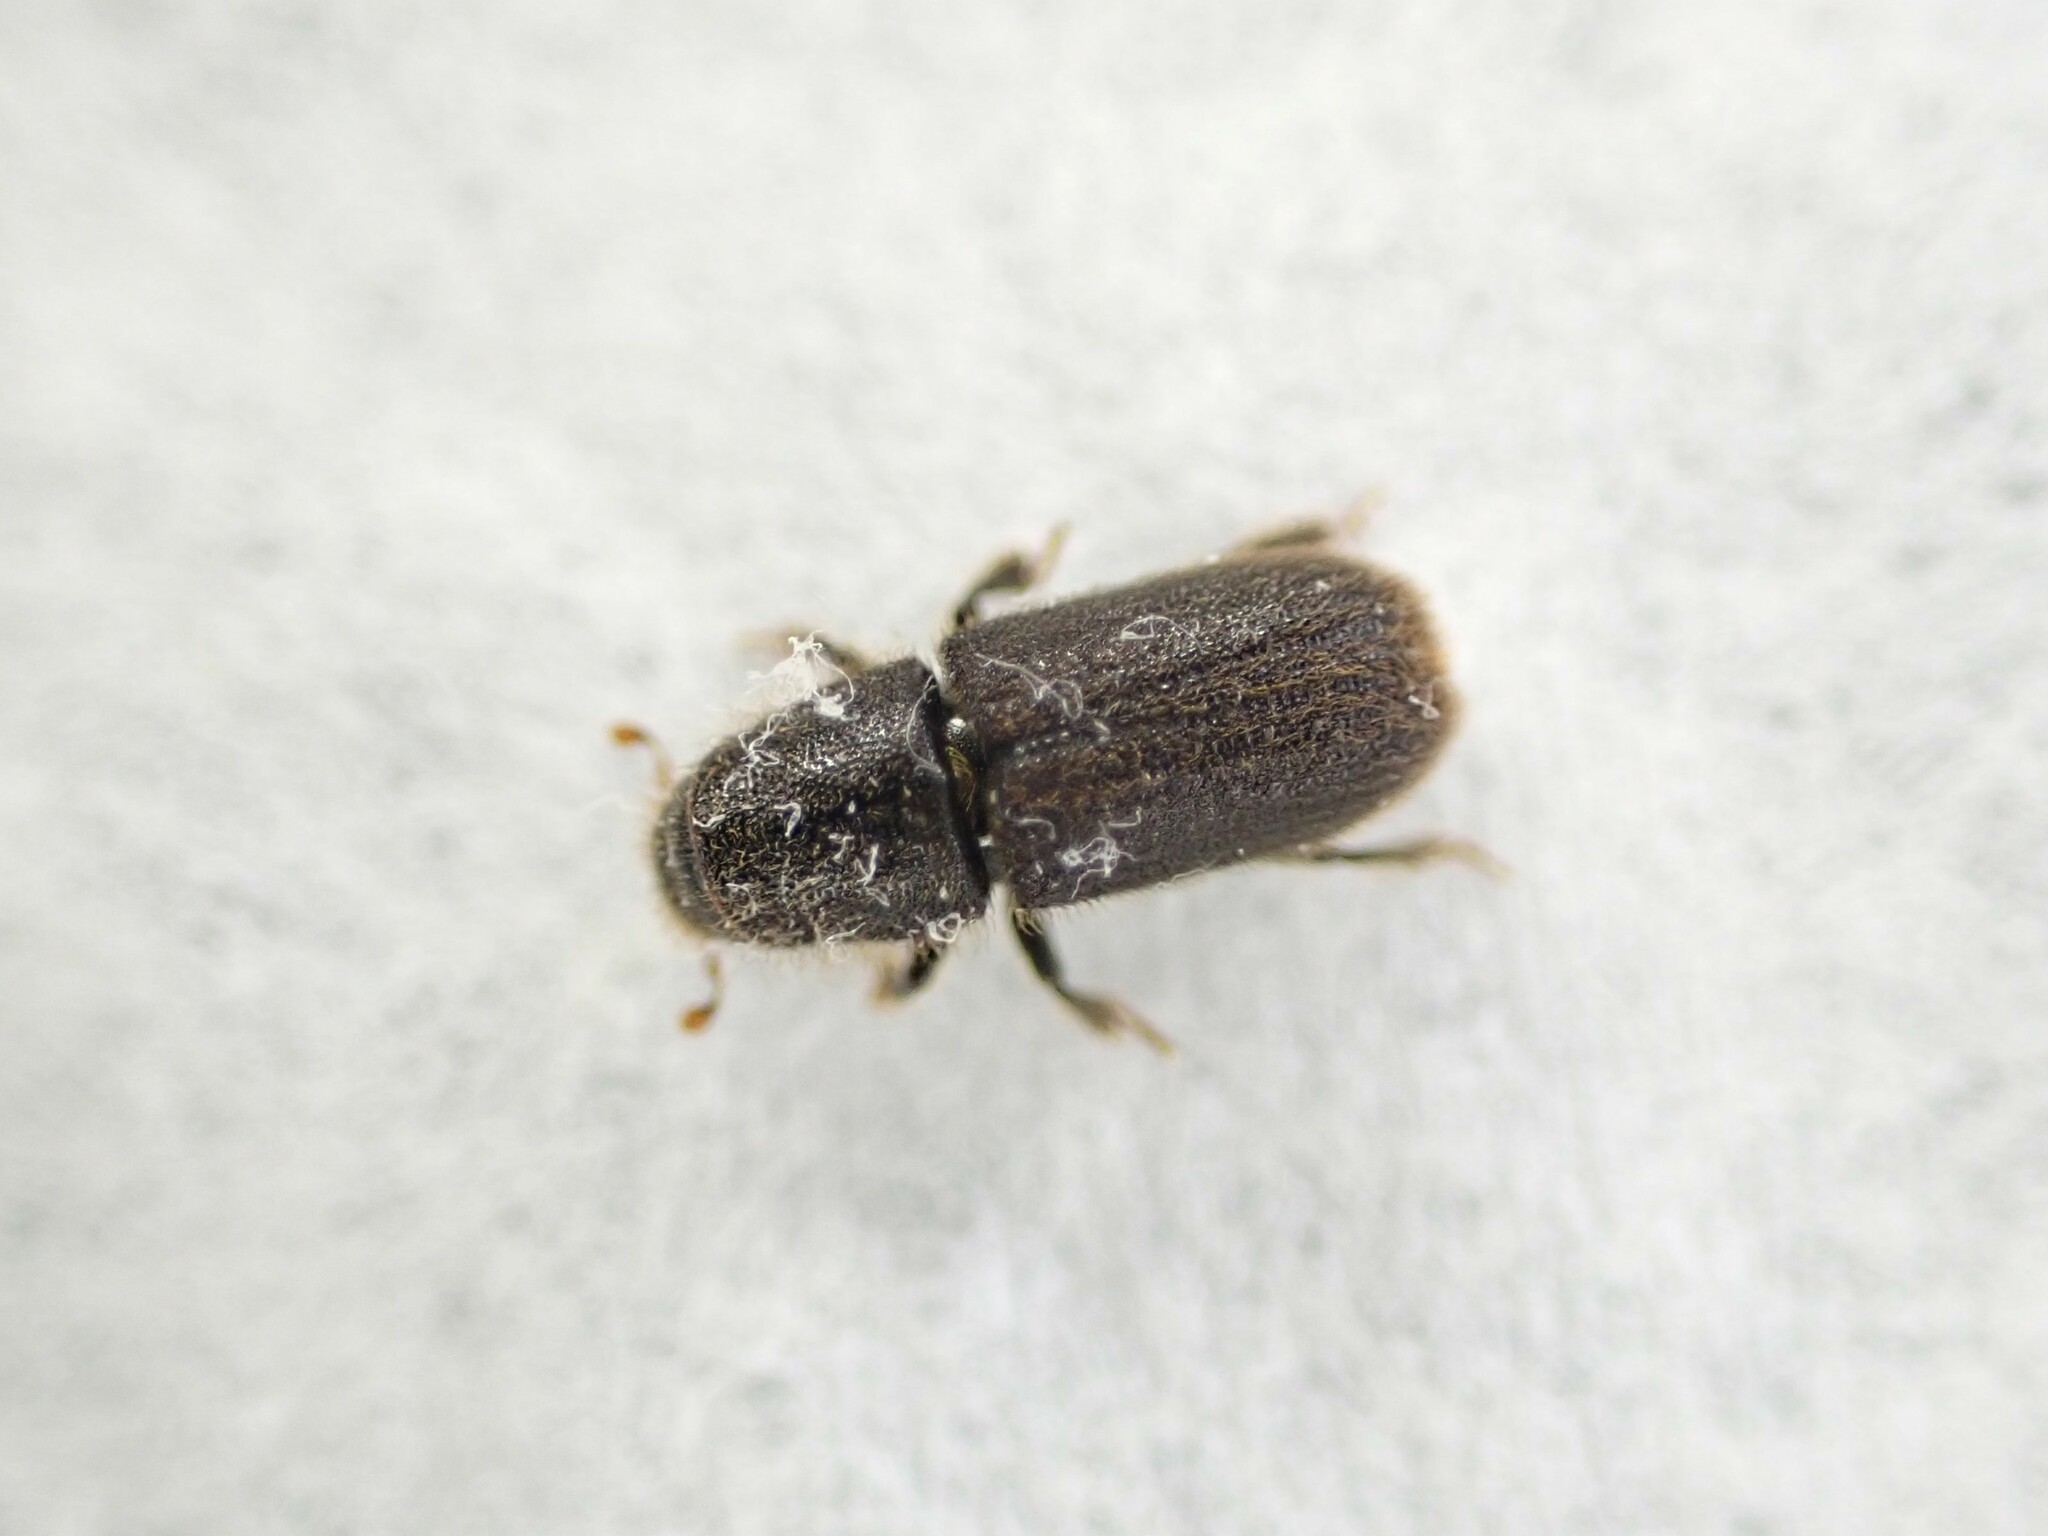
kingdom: Animalia
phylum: Arthropoda
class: Insecta
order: Coleoptera
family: Curculionidae
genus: Hylurgus
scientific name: Hylurgus ligniperda
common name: Goldenhaired bark beetle
